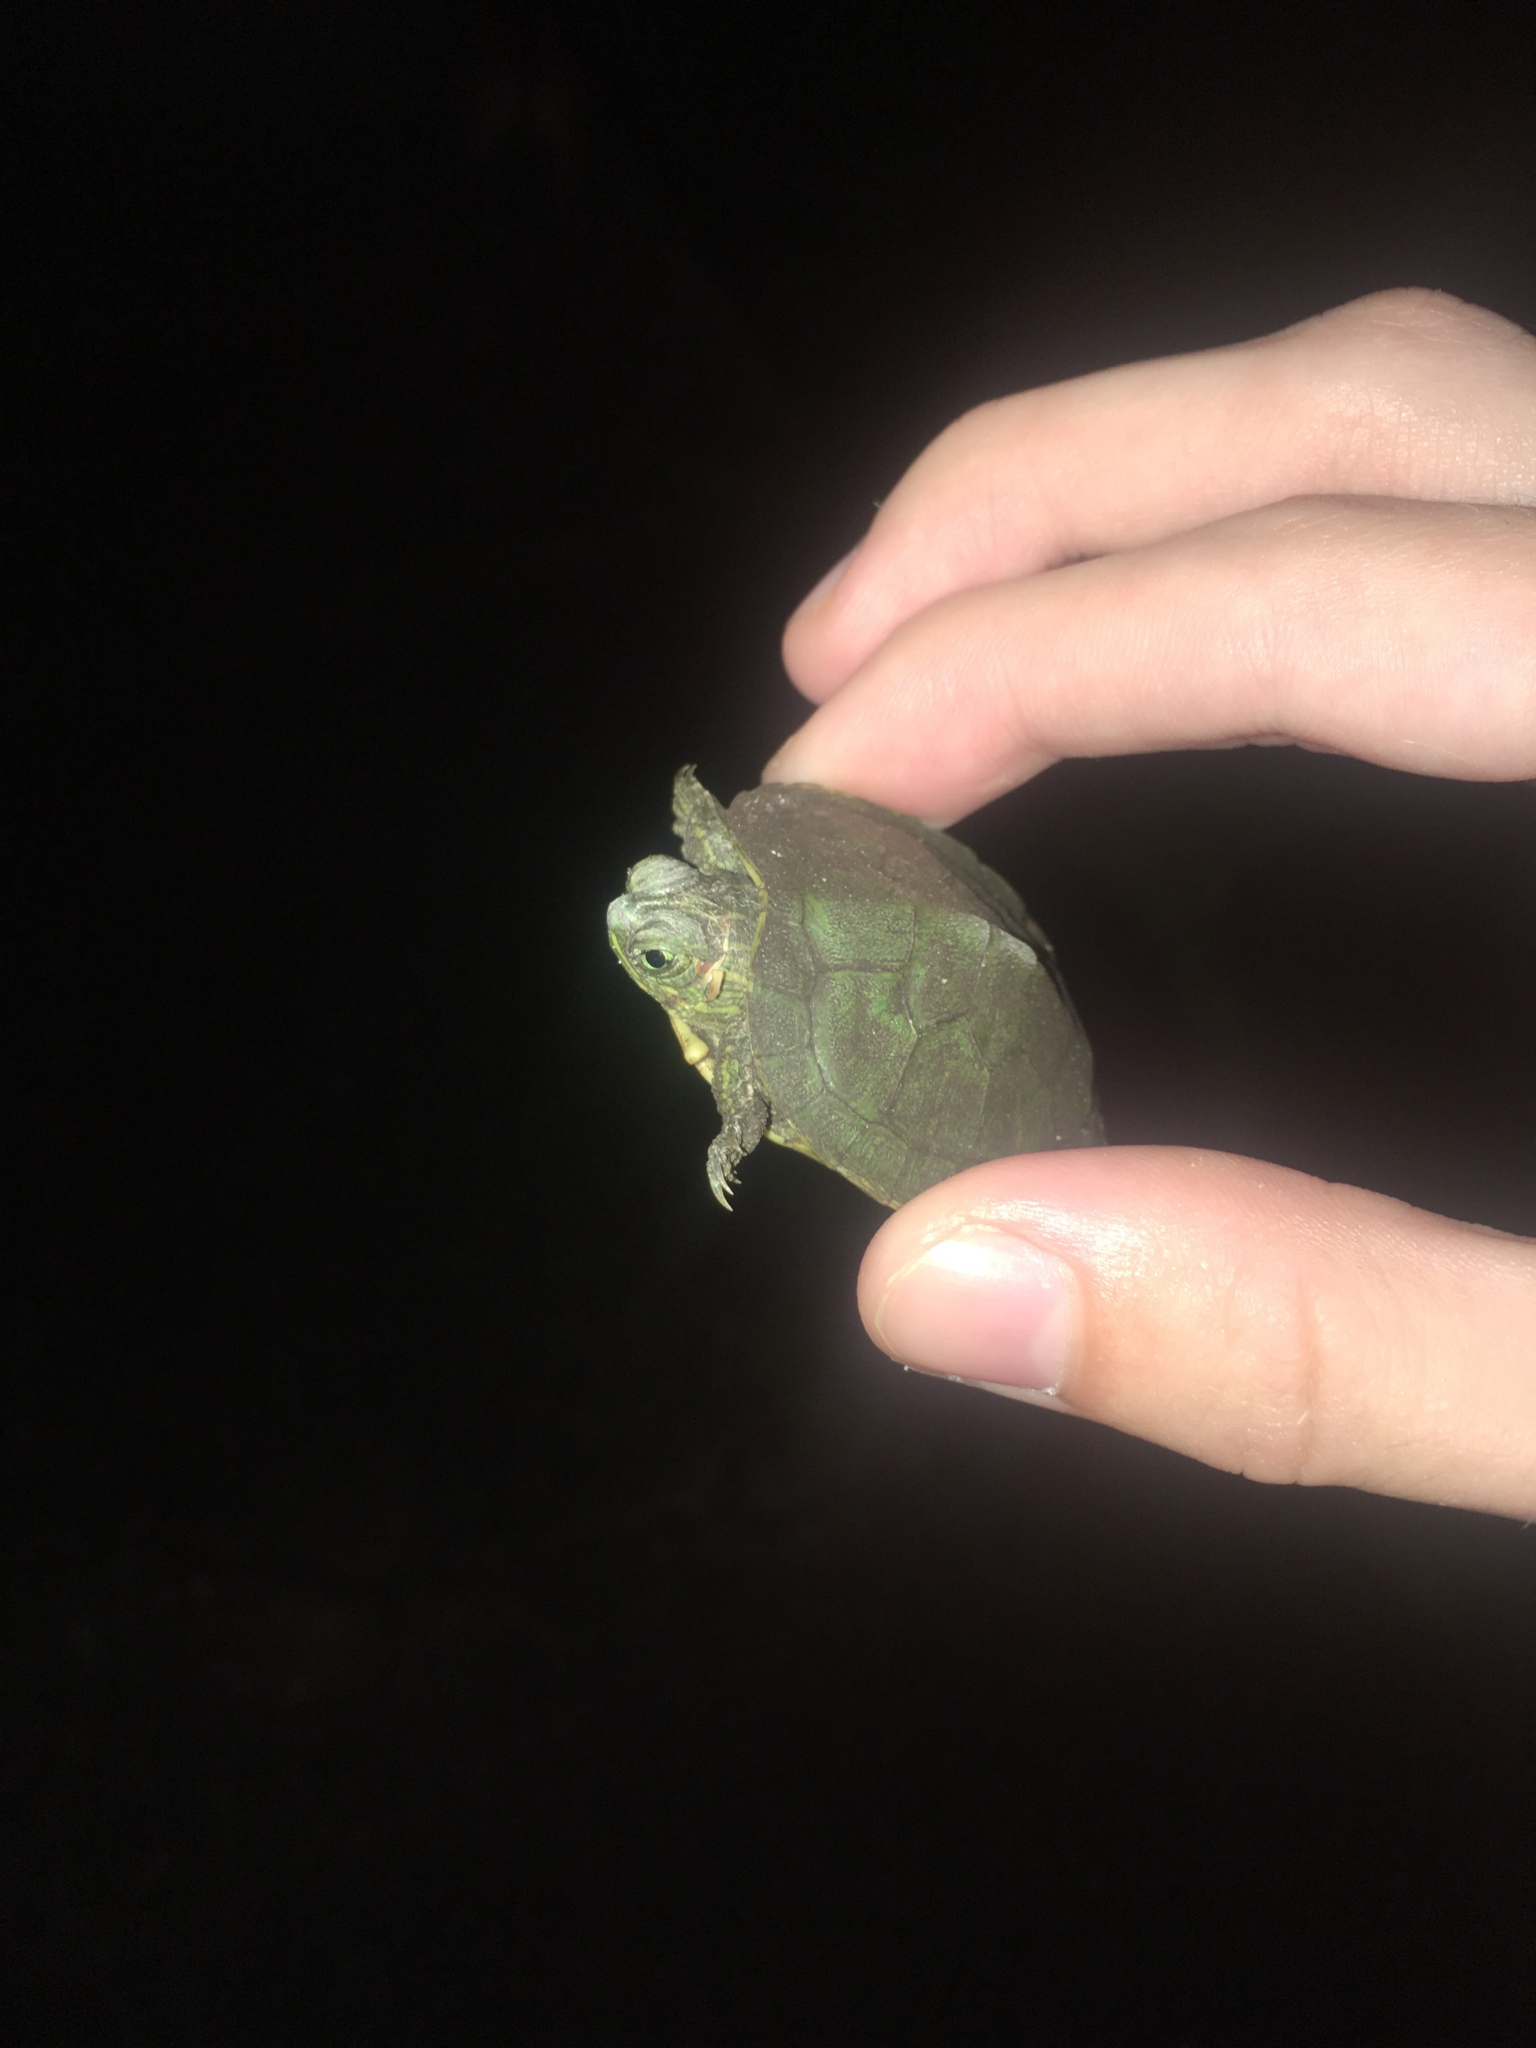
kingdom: Animalia
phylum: Chordata
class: Testudines
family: Emydidae
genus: Trachemys
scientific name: Trachemys scripta
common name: Slider
